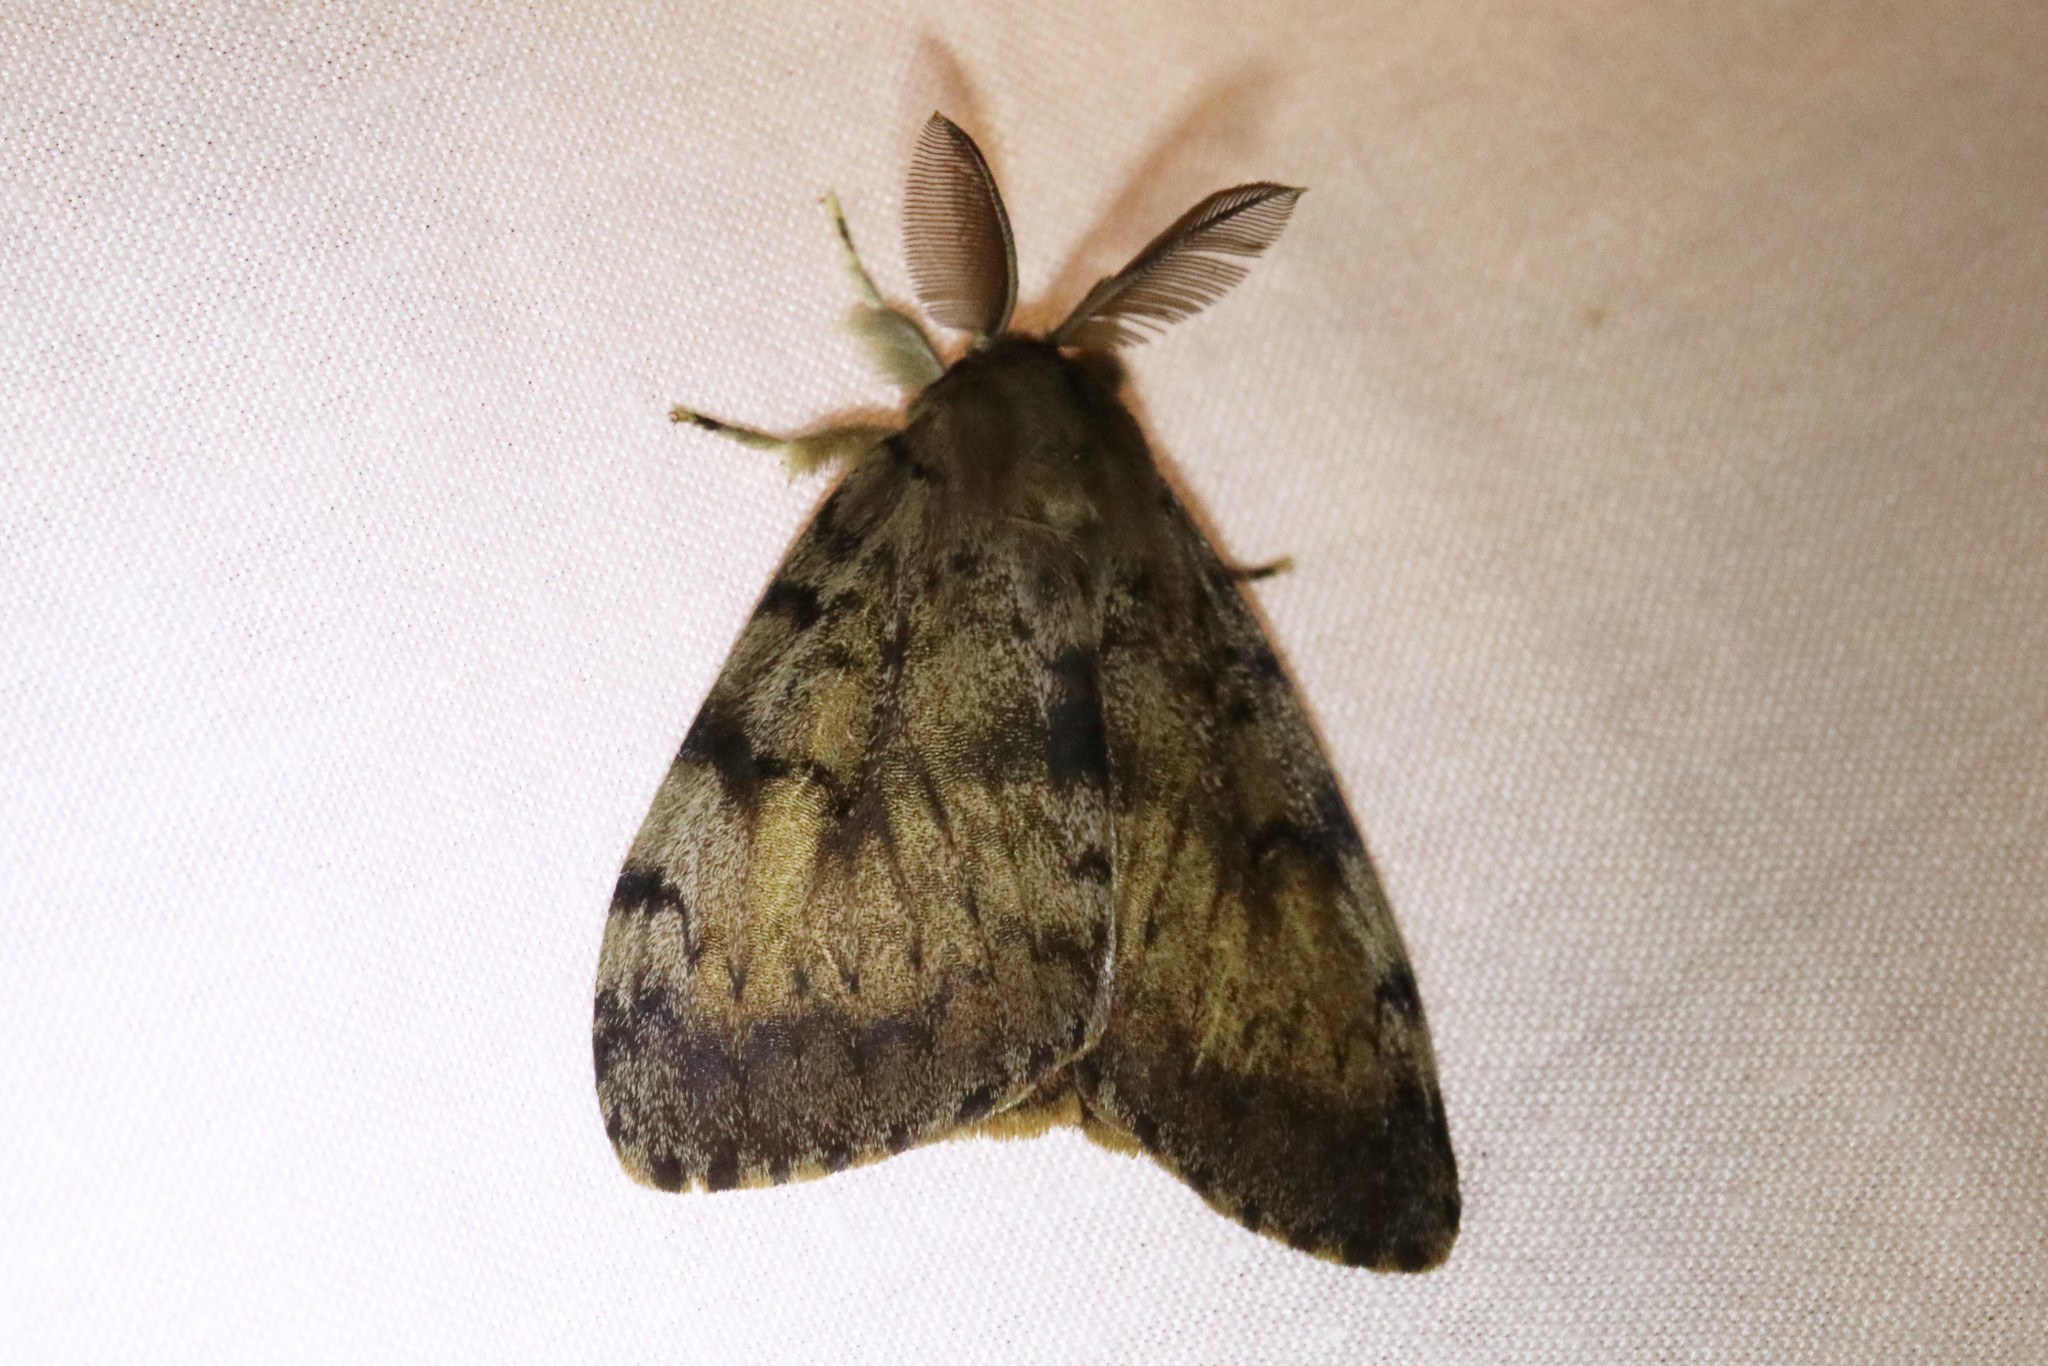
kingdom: Animalia
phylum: Arthropoda
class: Insecta
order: Lepidoptera
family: Erebidae
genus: Lymantria
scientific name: Lymantria dispar
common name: Gypsy moth
